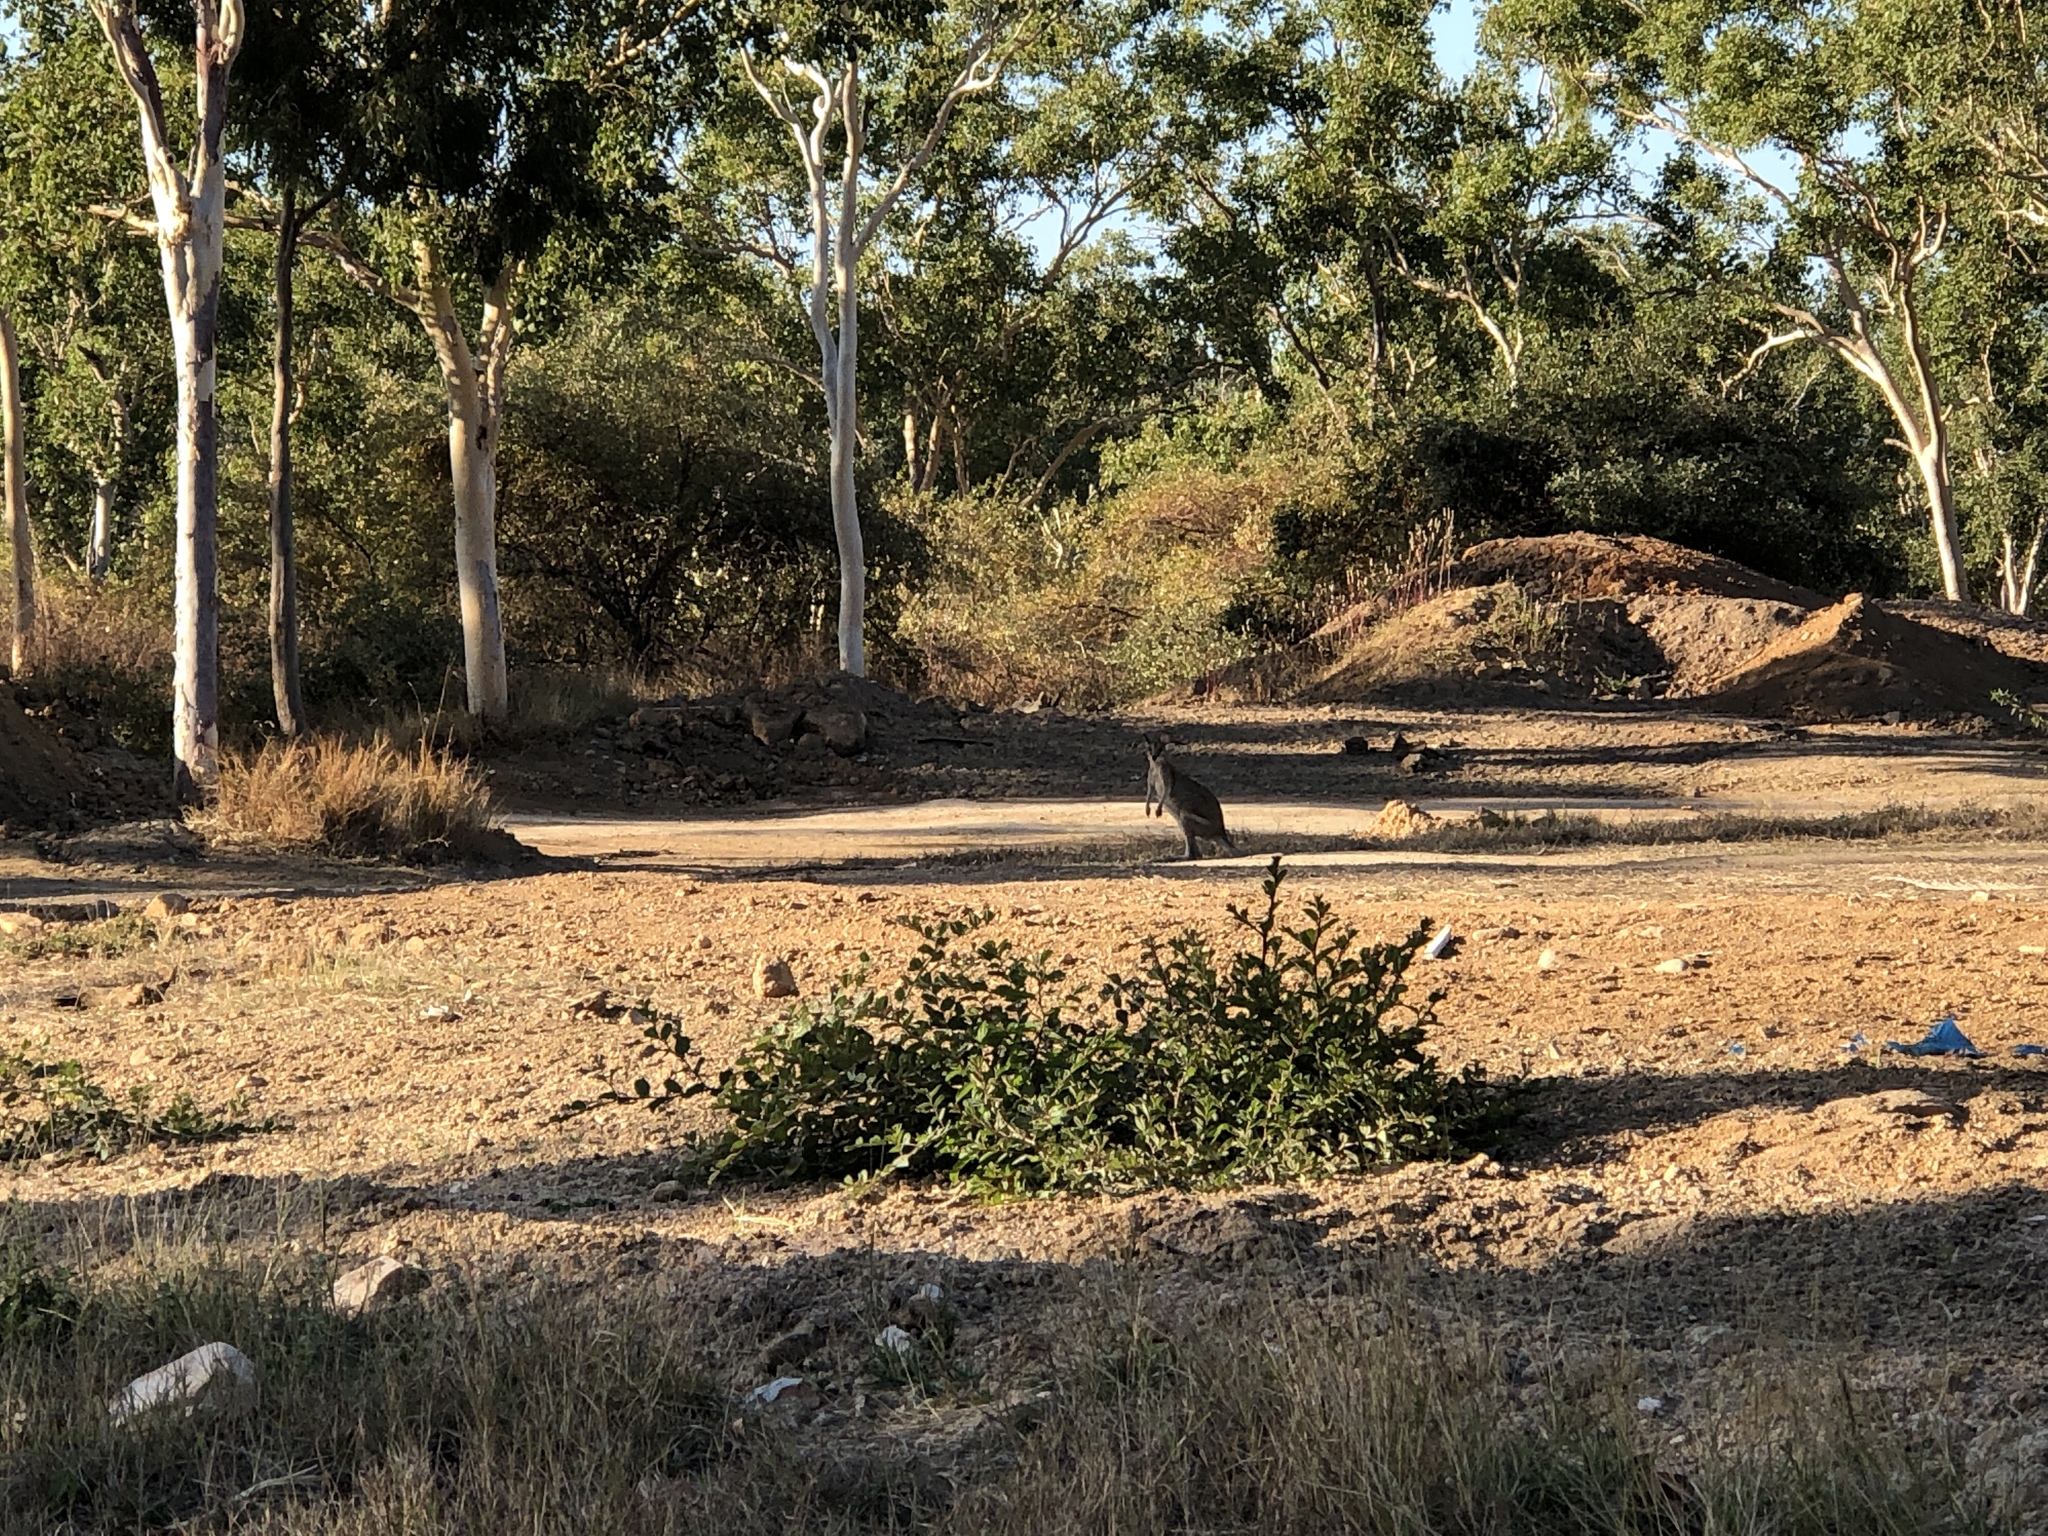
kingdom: Animalia
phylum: Chordata
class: Mammalia
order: Diprotodontia
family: Macropodidae
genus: Macropus
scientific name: Macropus agilis
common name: Agile wallaby
